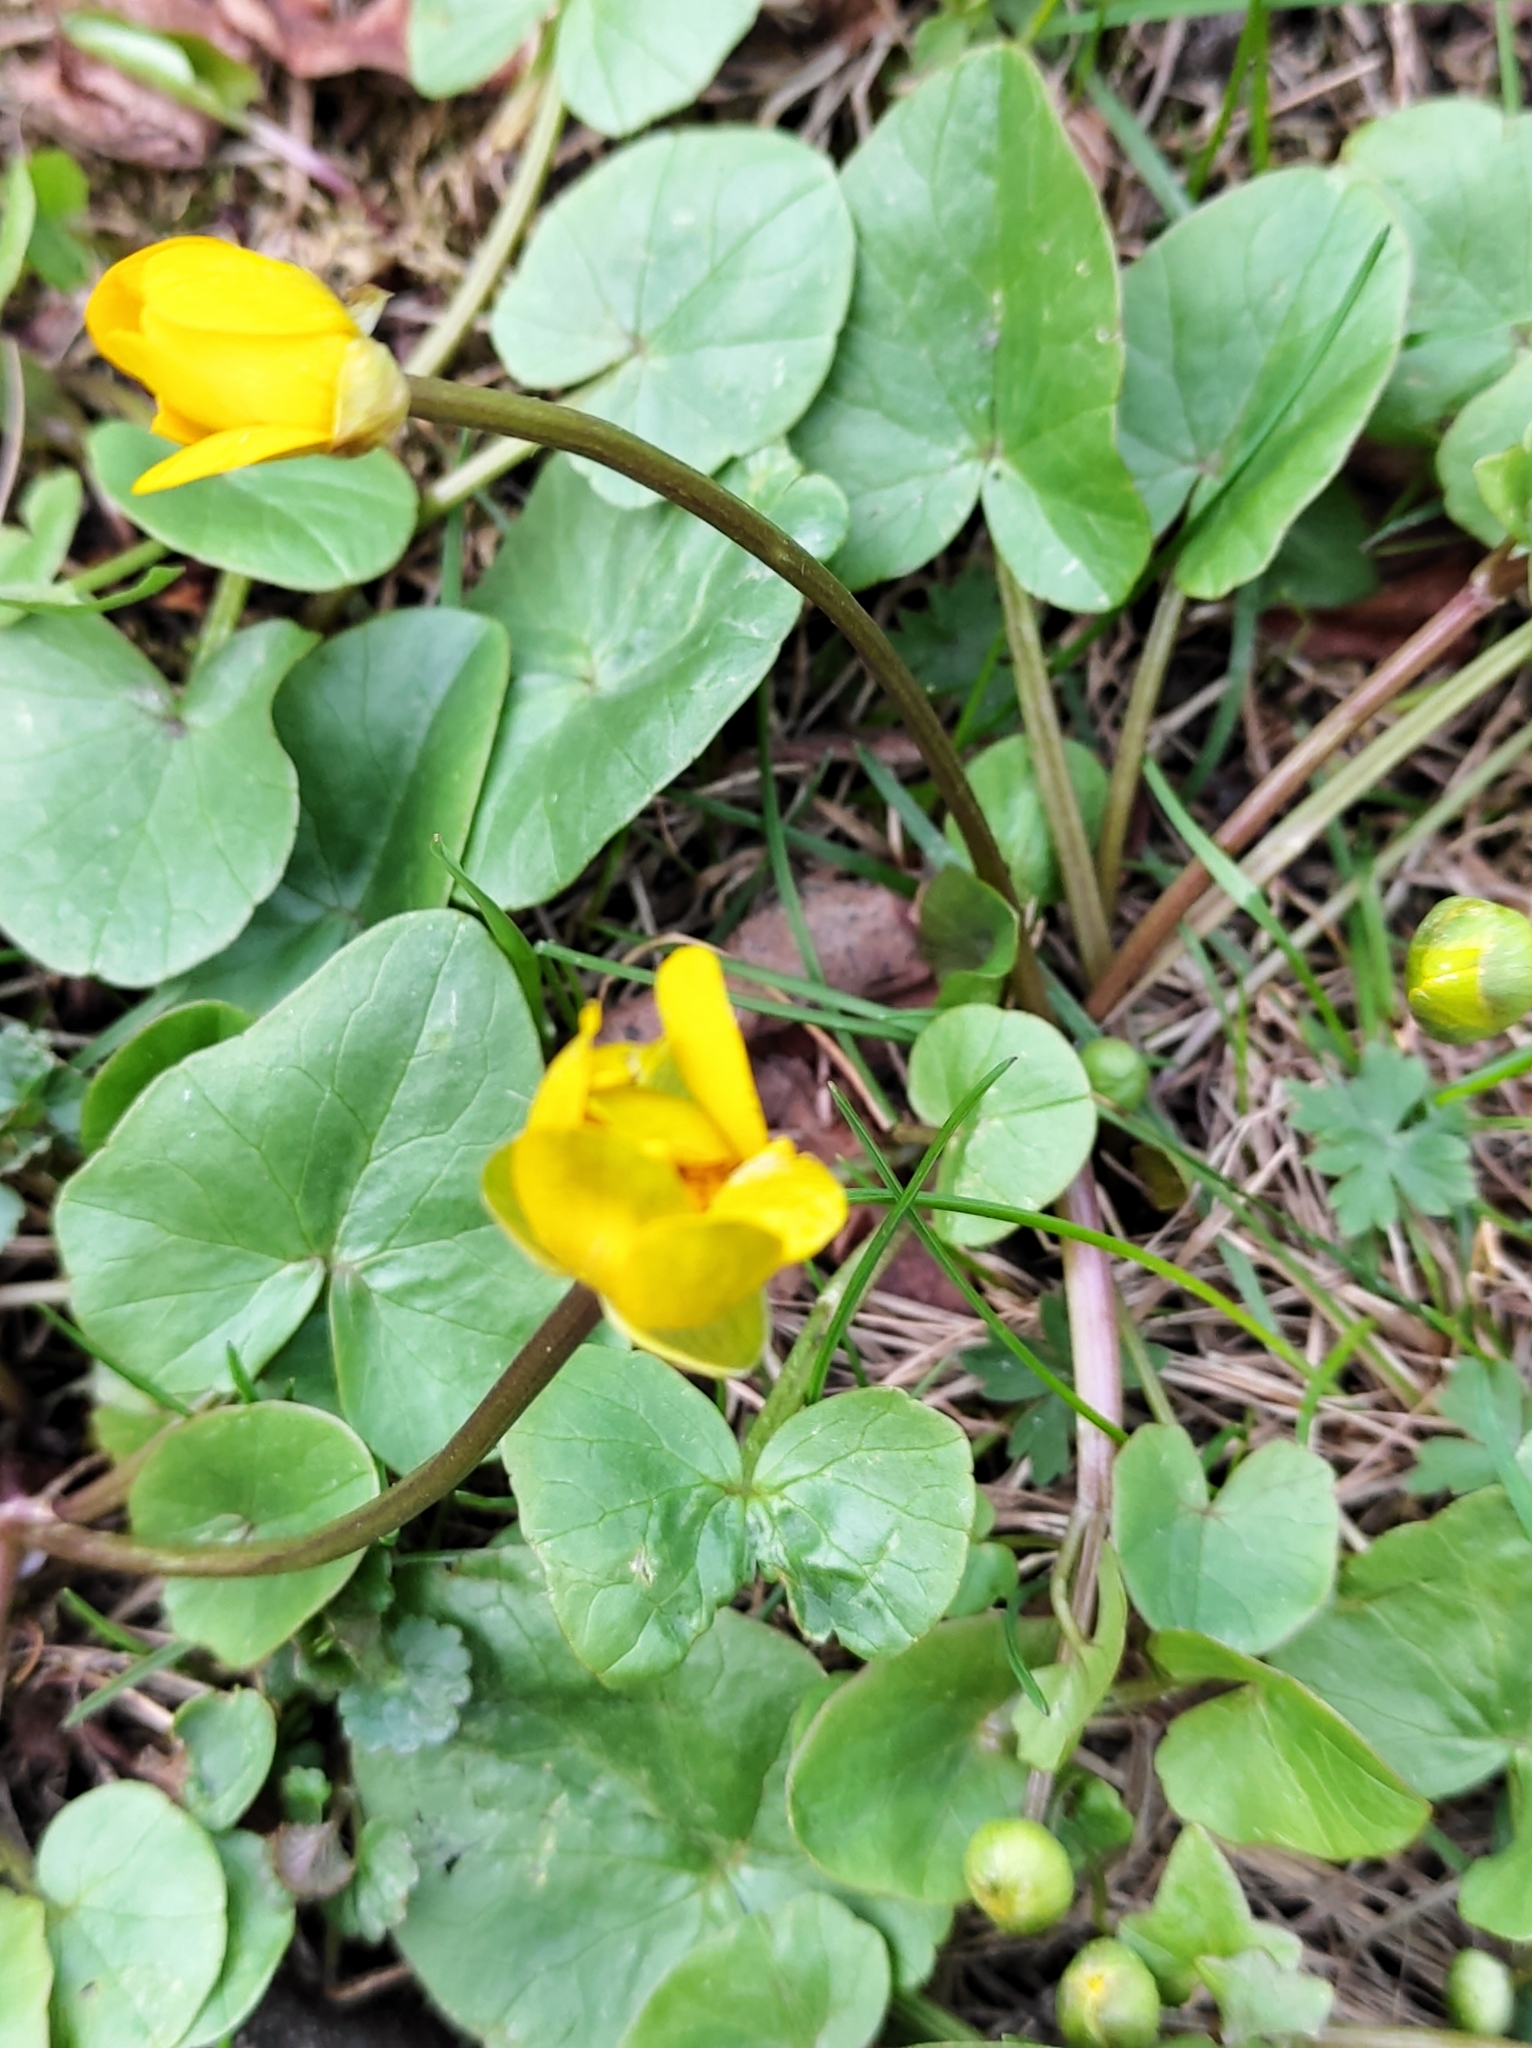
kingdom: Plantae
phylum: Tracheophyta
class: Magnoliopsida
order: Ranunculales
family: Ranunculaceae
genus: Ficaria
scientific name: Ficaria verna
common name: Lesser celandine
